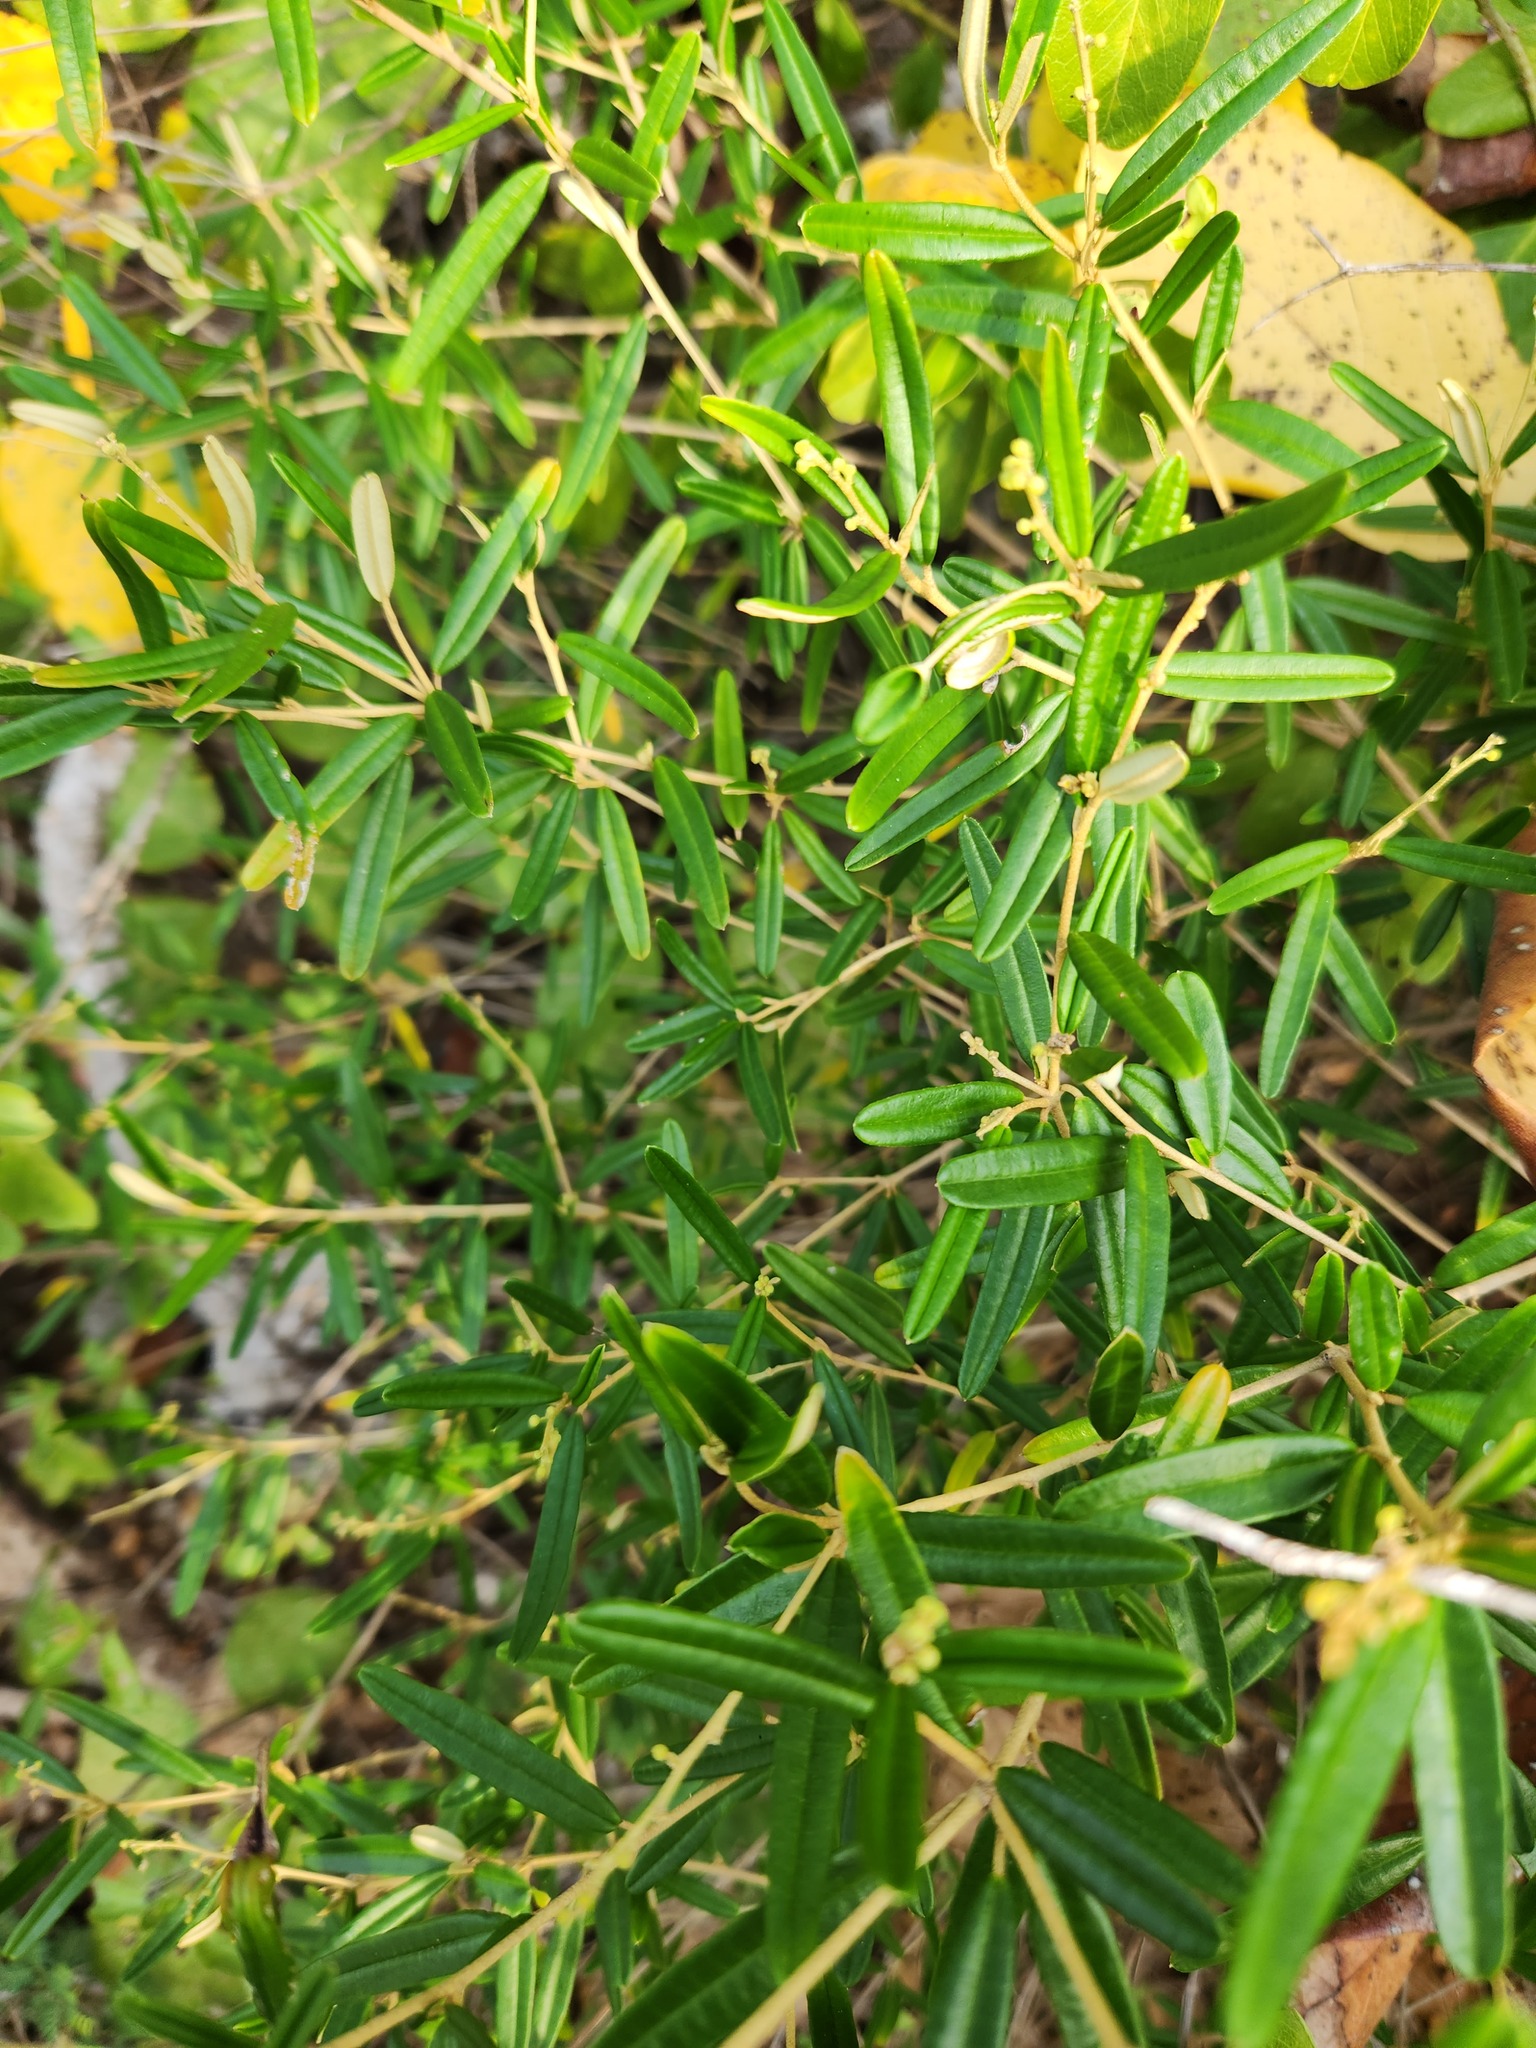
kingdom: Plantae
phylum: Tracheophyta
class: Magnoliopsida
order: Malpighiales
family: Euphorbiaceae
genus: Croton
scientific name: Croton linearis
